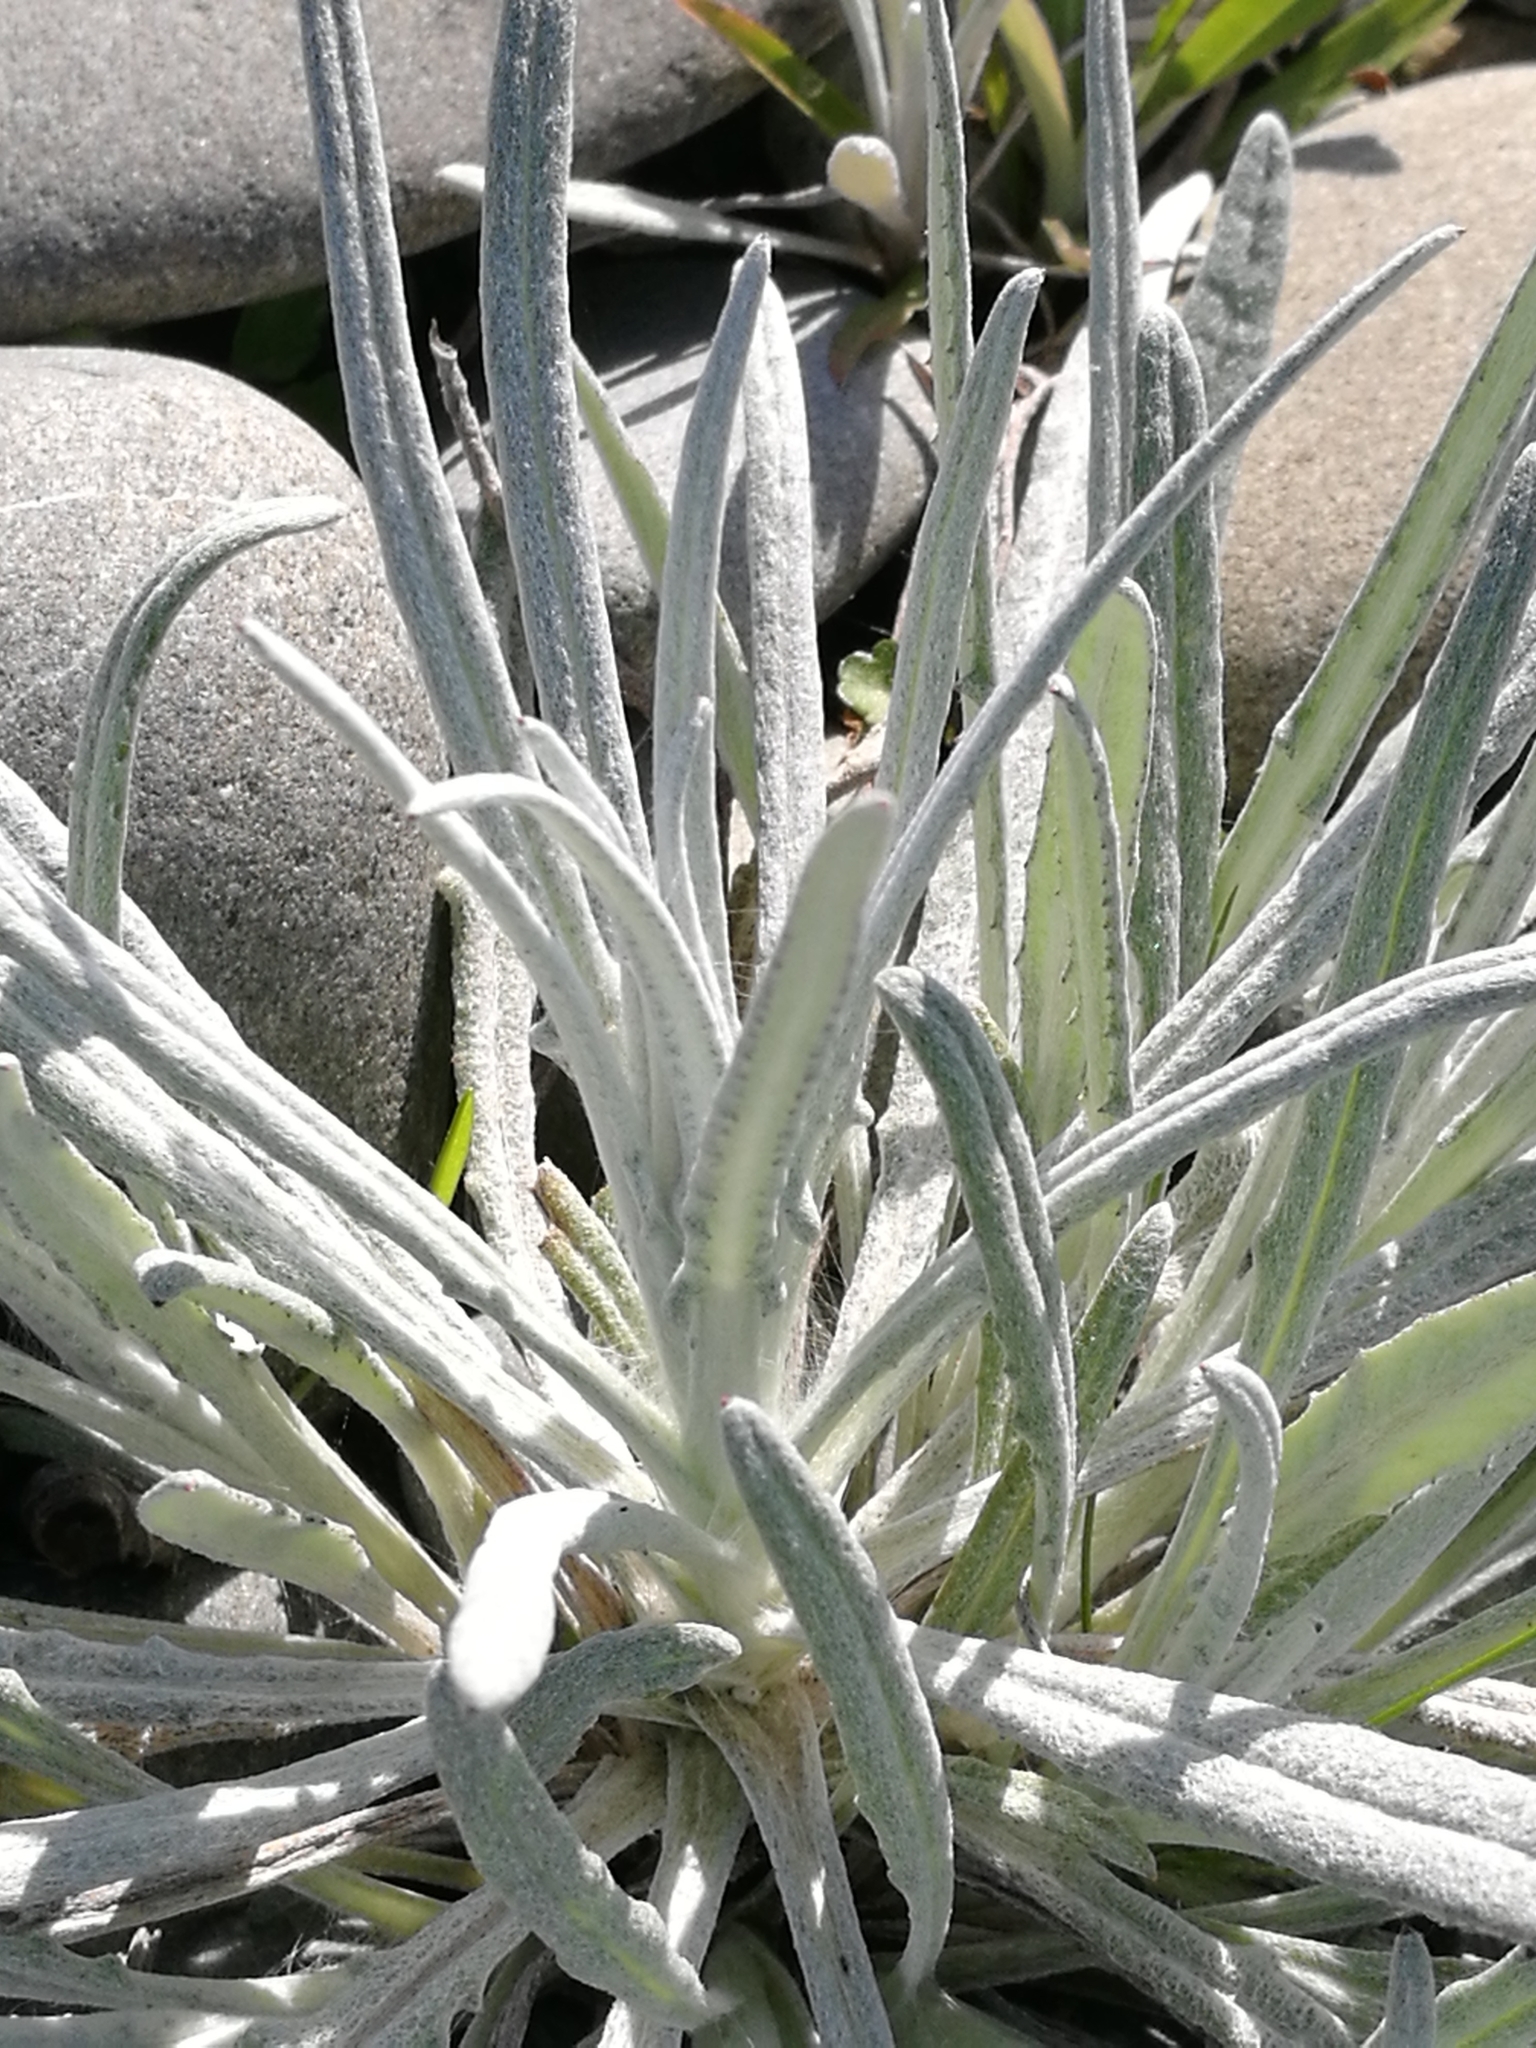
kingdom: Plantae
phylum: Tracheophyta
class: Magnoliopsida
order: Asterales
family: Asteraceae
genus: Senecio
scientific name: Senecio quadridentatus
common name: Cotton fireweed
